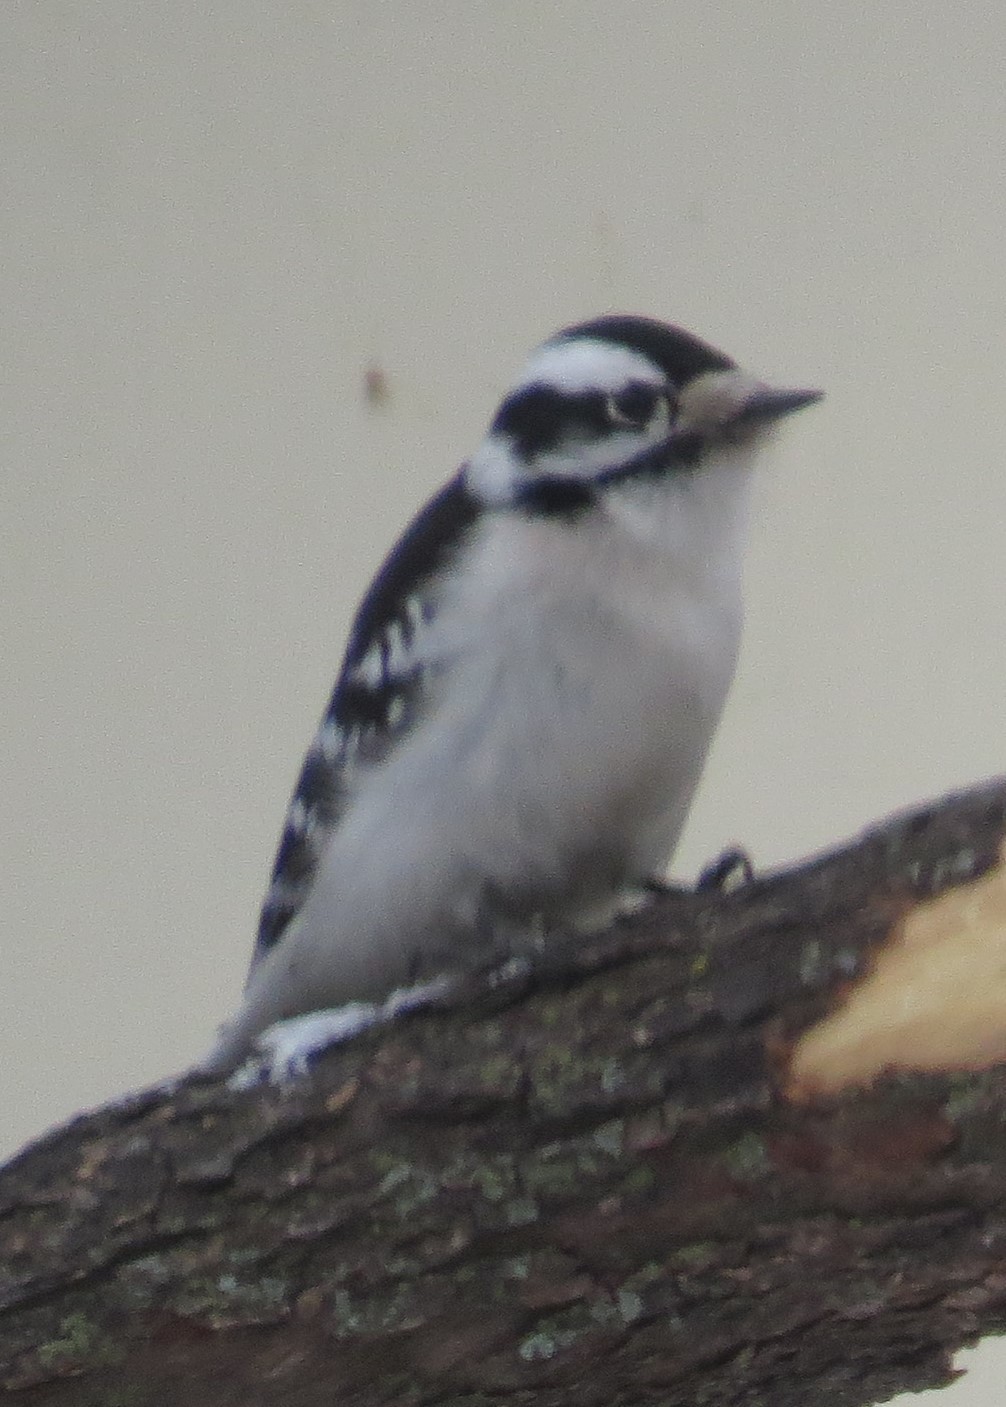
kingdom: Animalia
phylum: Chordata
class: Aves
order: Piciformes
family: Picidae
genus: Dryobates
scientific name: Dryobates pubescens
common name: Downy woodpecker
